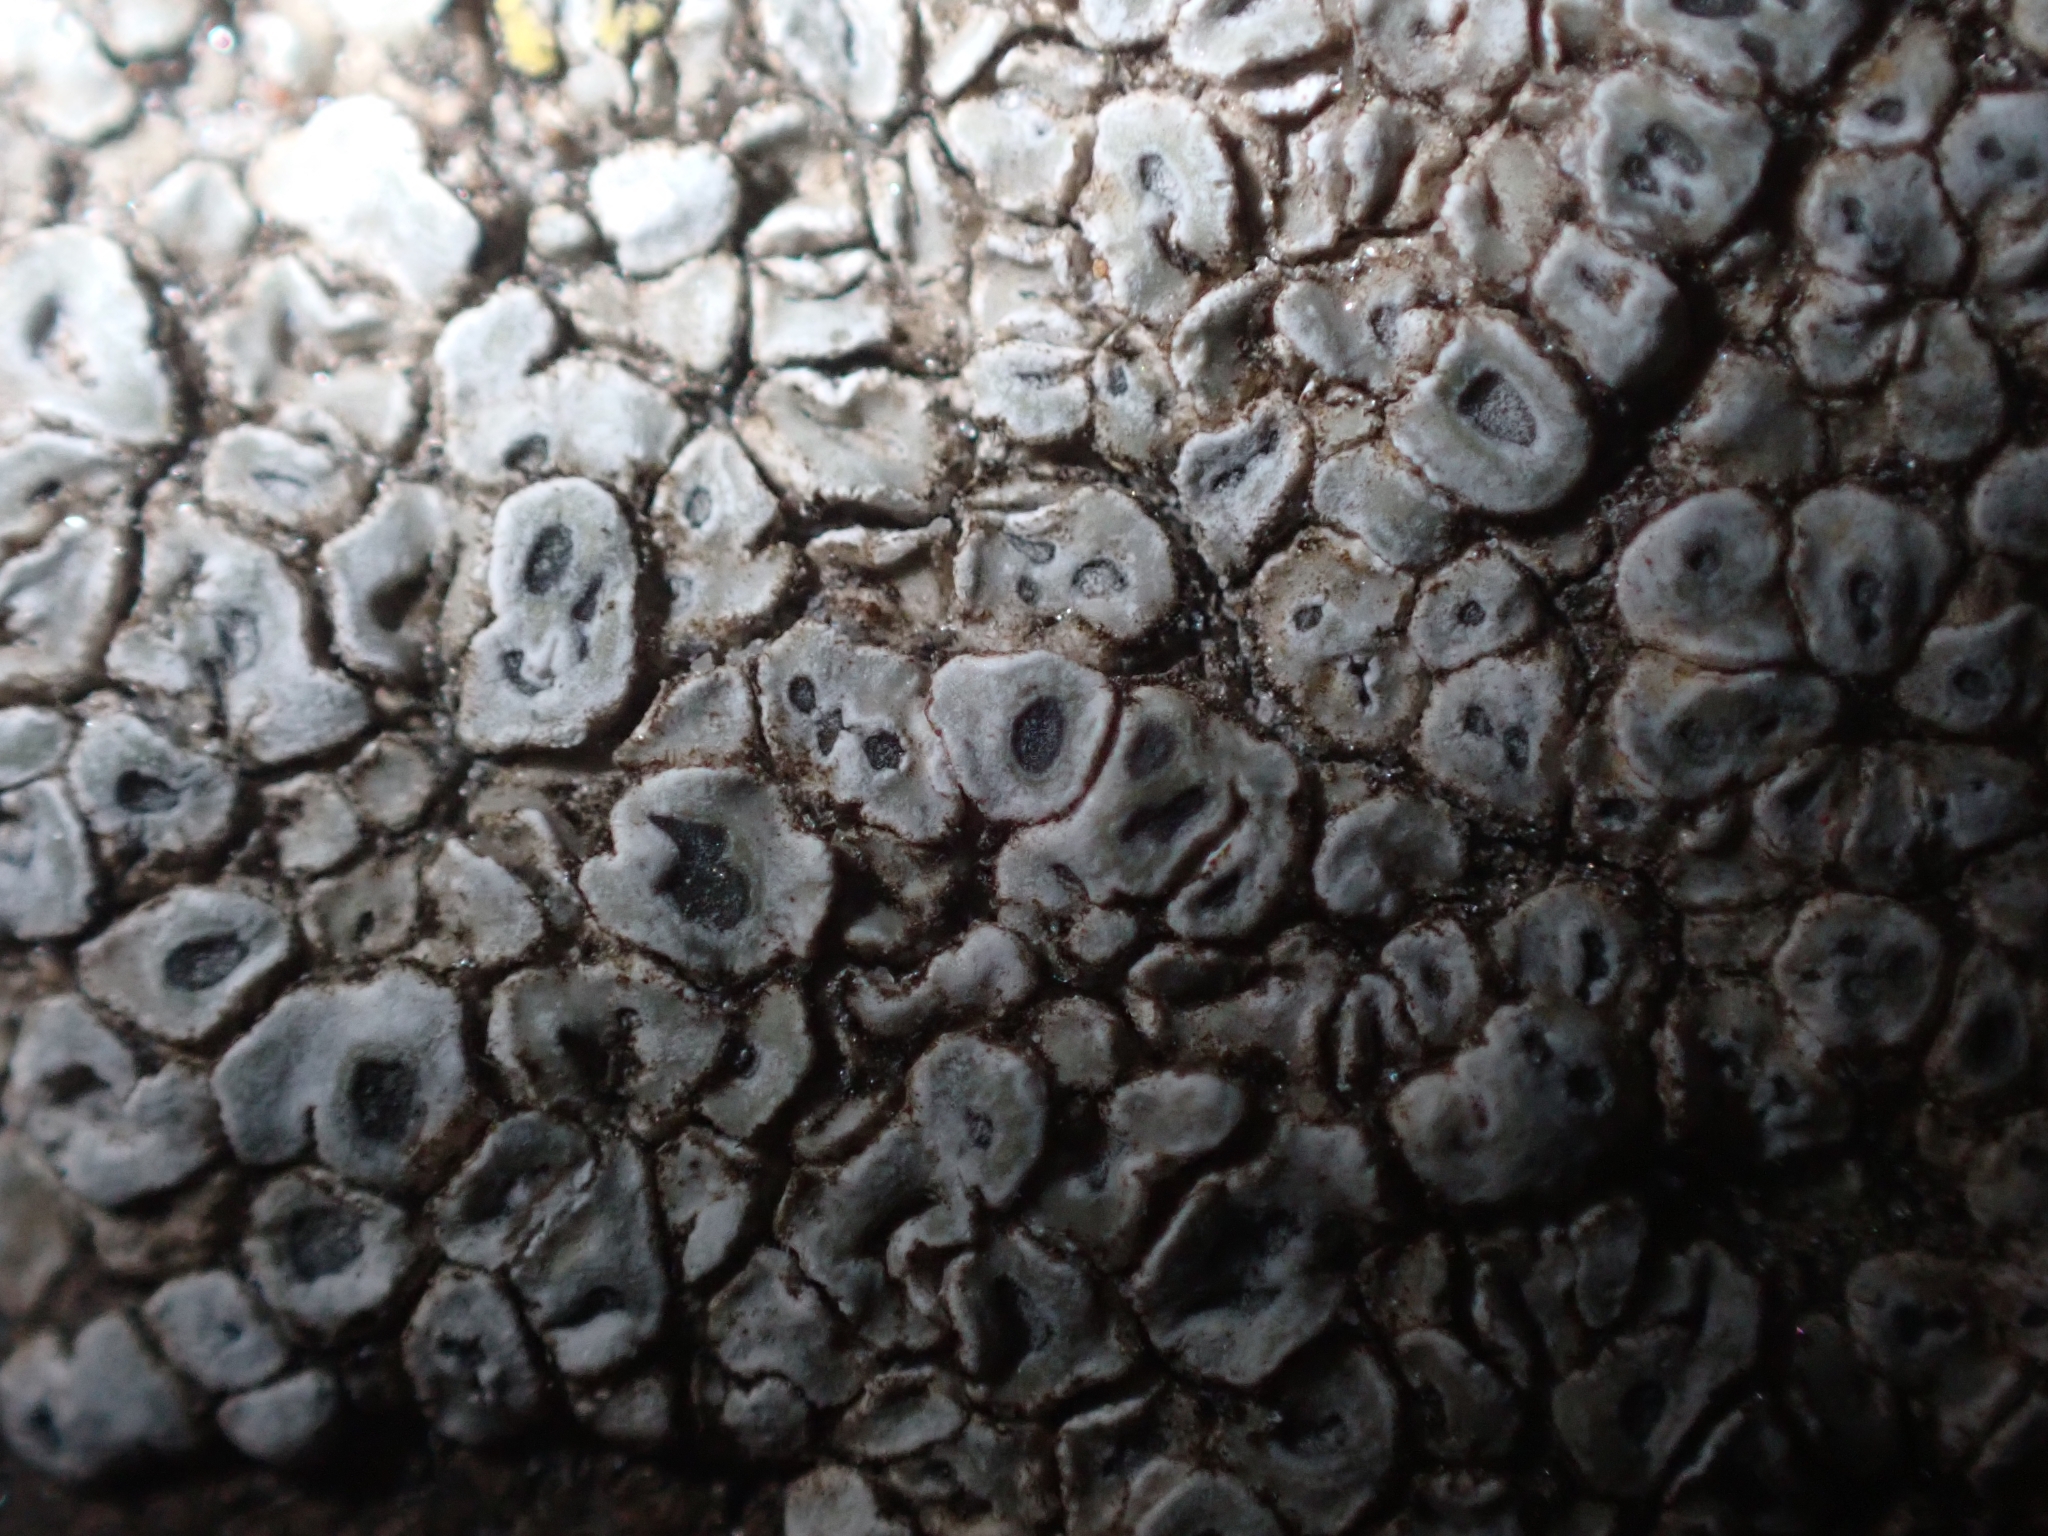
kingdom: Fungi
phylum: Ascomycota
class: Lecanoromycetes
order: Pertusariales
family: Megasporaceae
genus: Circinaria
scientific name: Circinaria contorta
